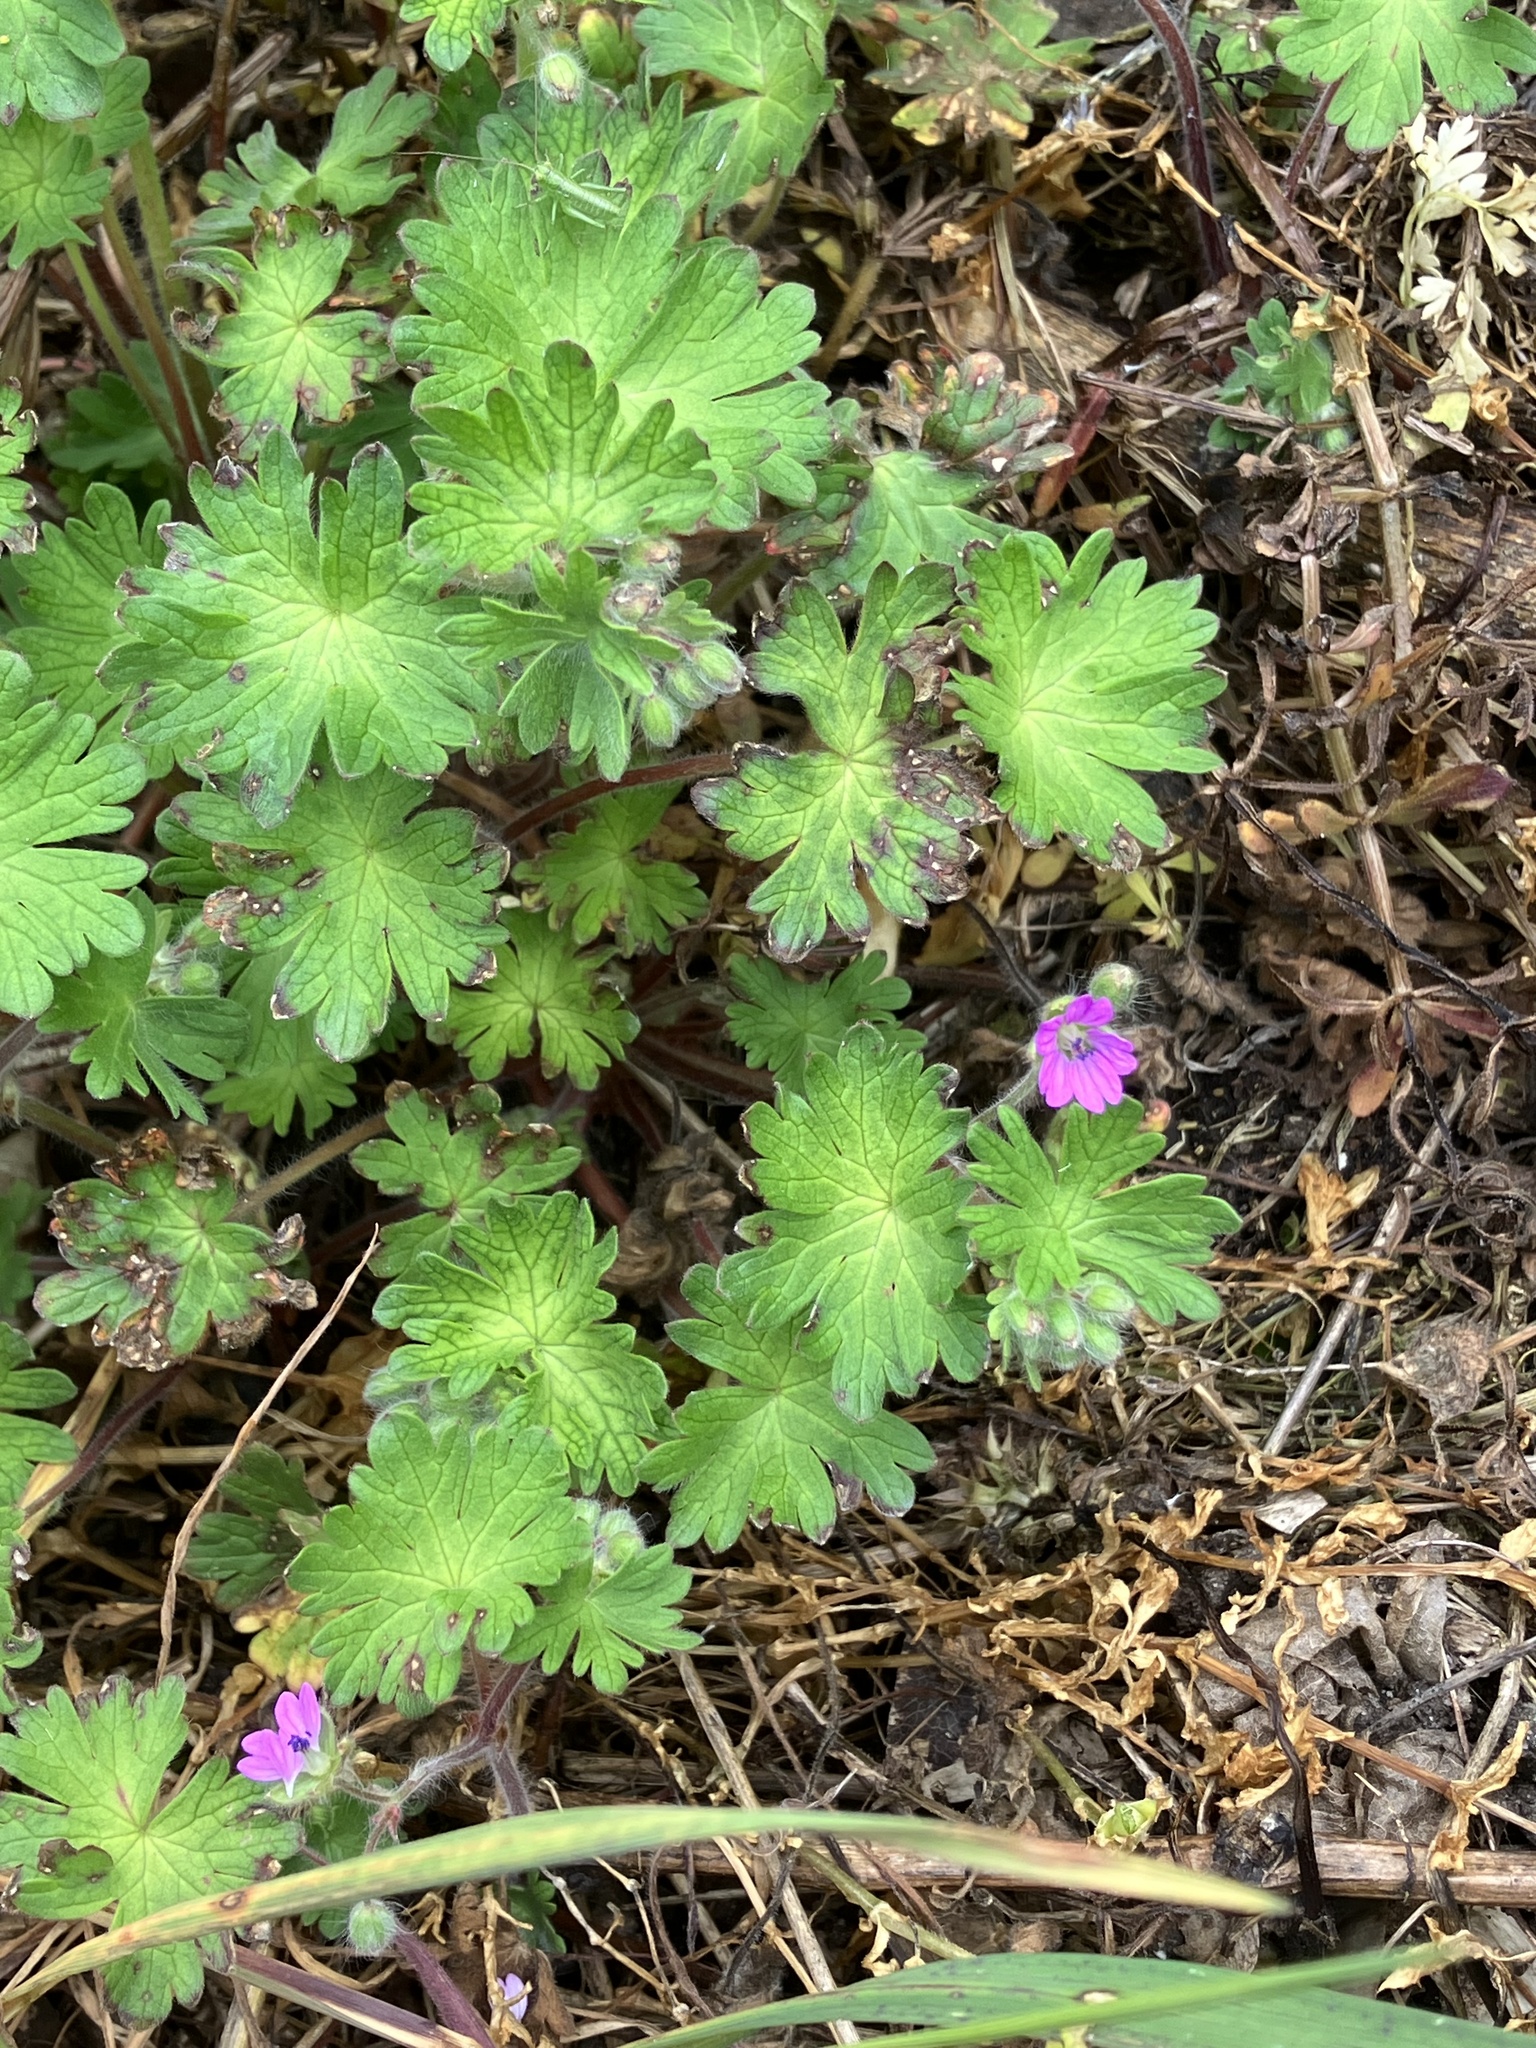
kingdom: Plantae
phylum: Tracheophyta
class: Magnoliopsida
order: Geraniales
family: Geraniaceae
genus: Geranium
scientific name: Geranium molle
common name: Dove's-foot crane's-bill
